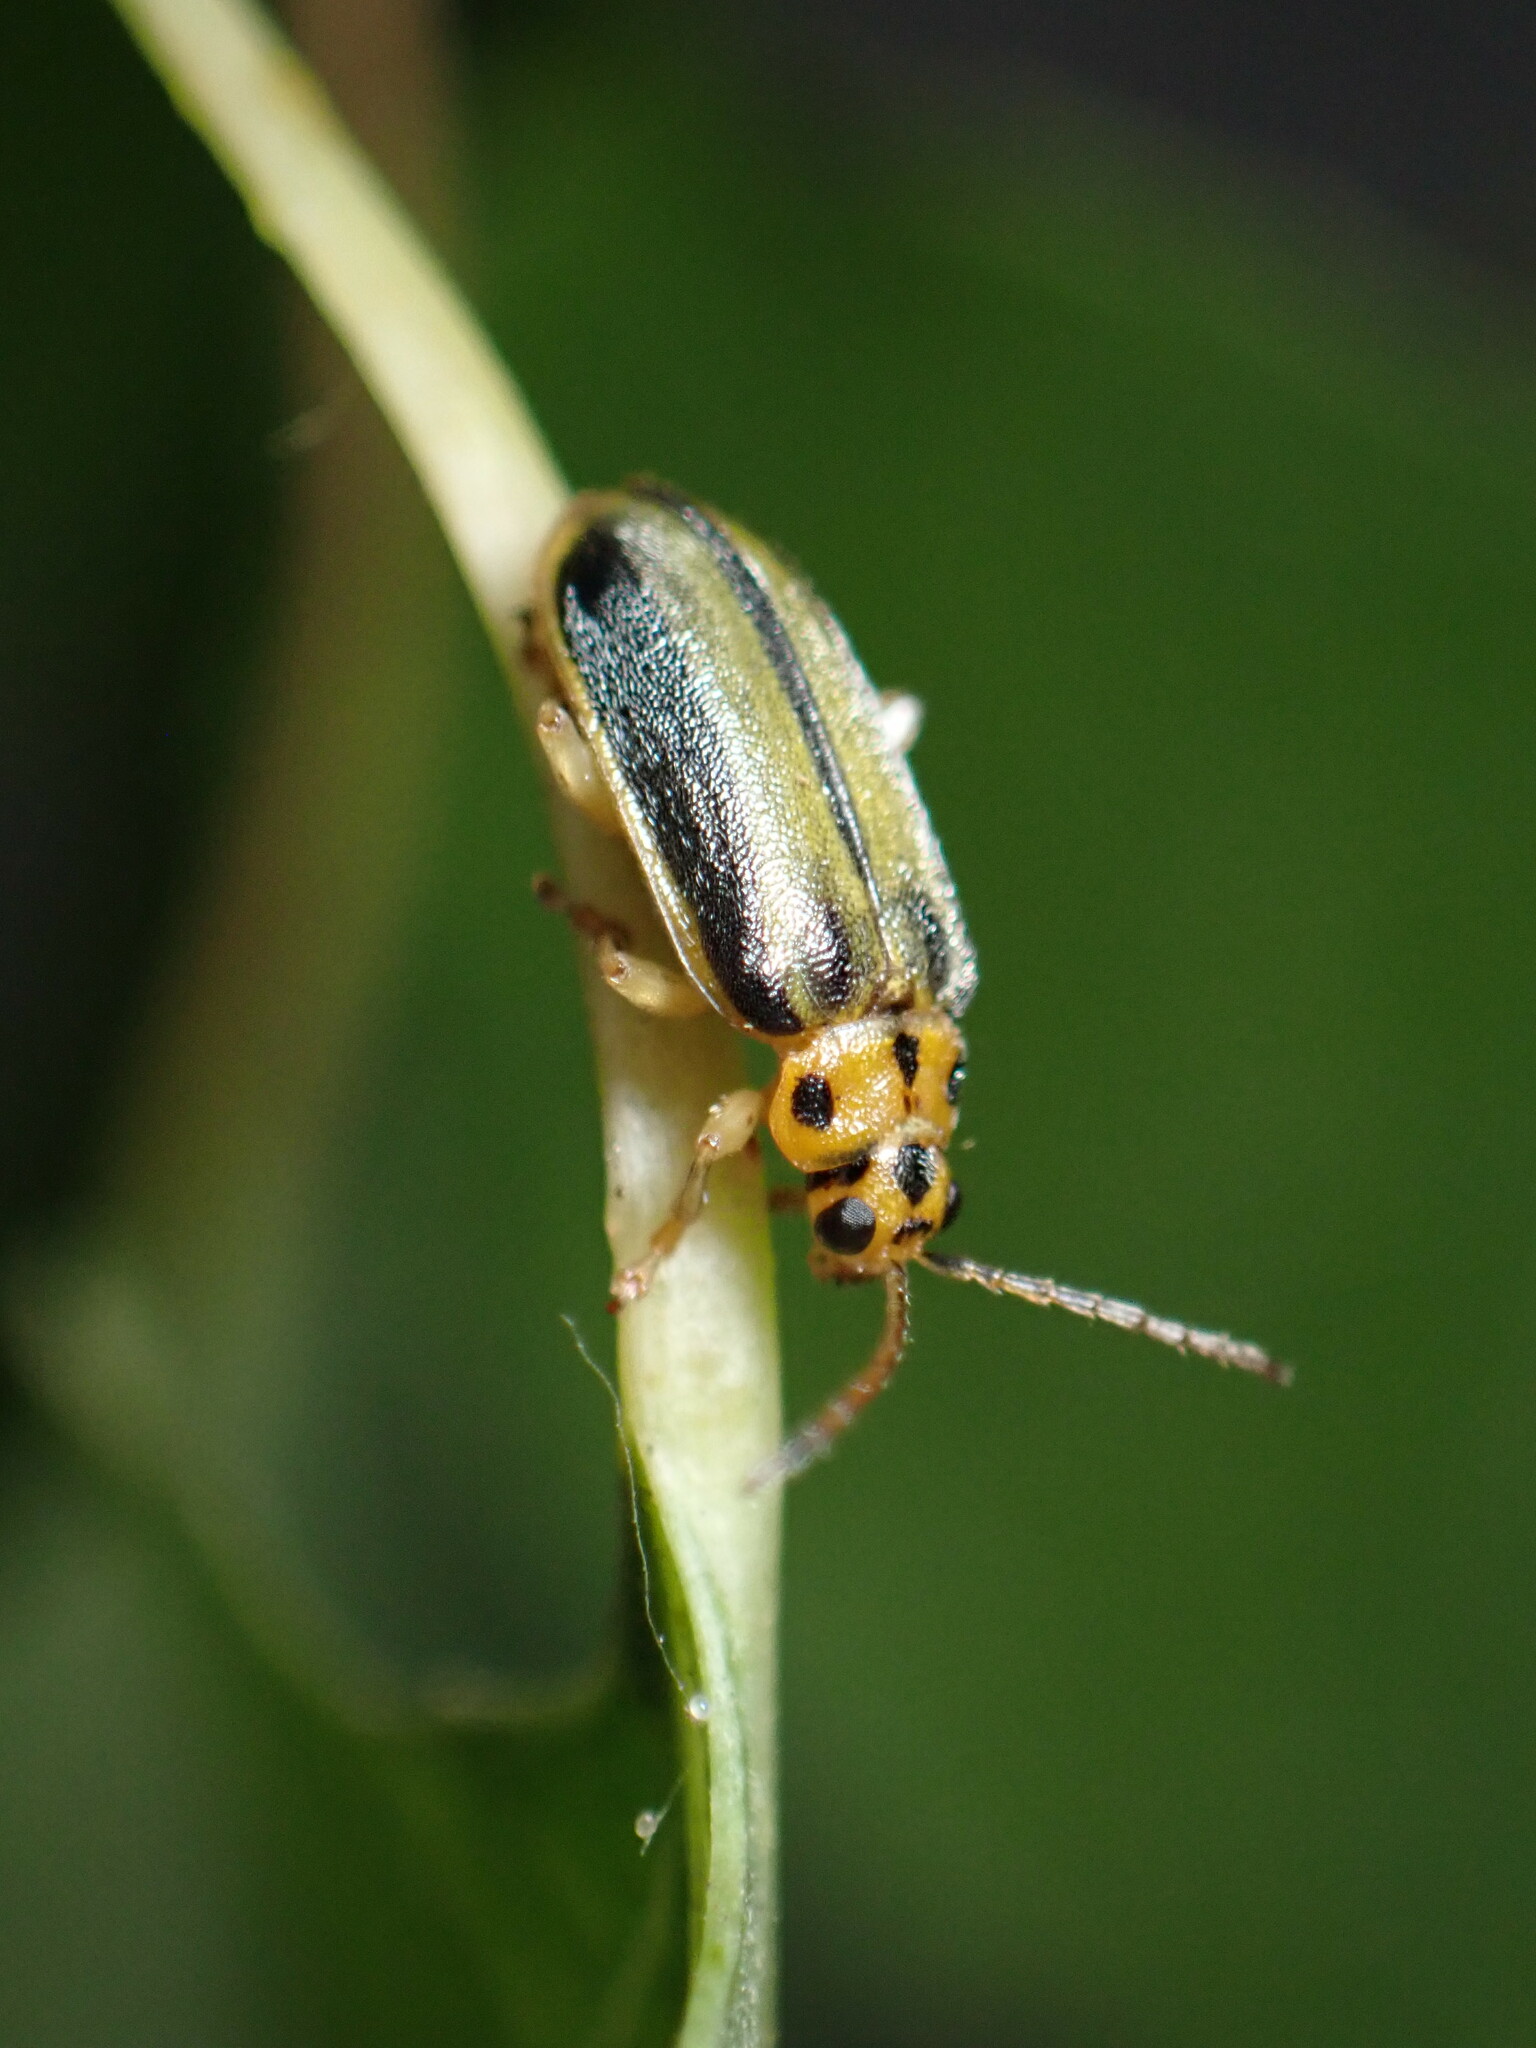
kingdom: Animalia
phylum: Arthropoda
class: Insecta
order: Coleoptera
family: Chrysomelidae
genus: Xanthogaleruca
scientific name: Xanthogaleruca luteola
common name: Elm leaf beetle
